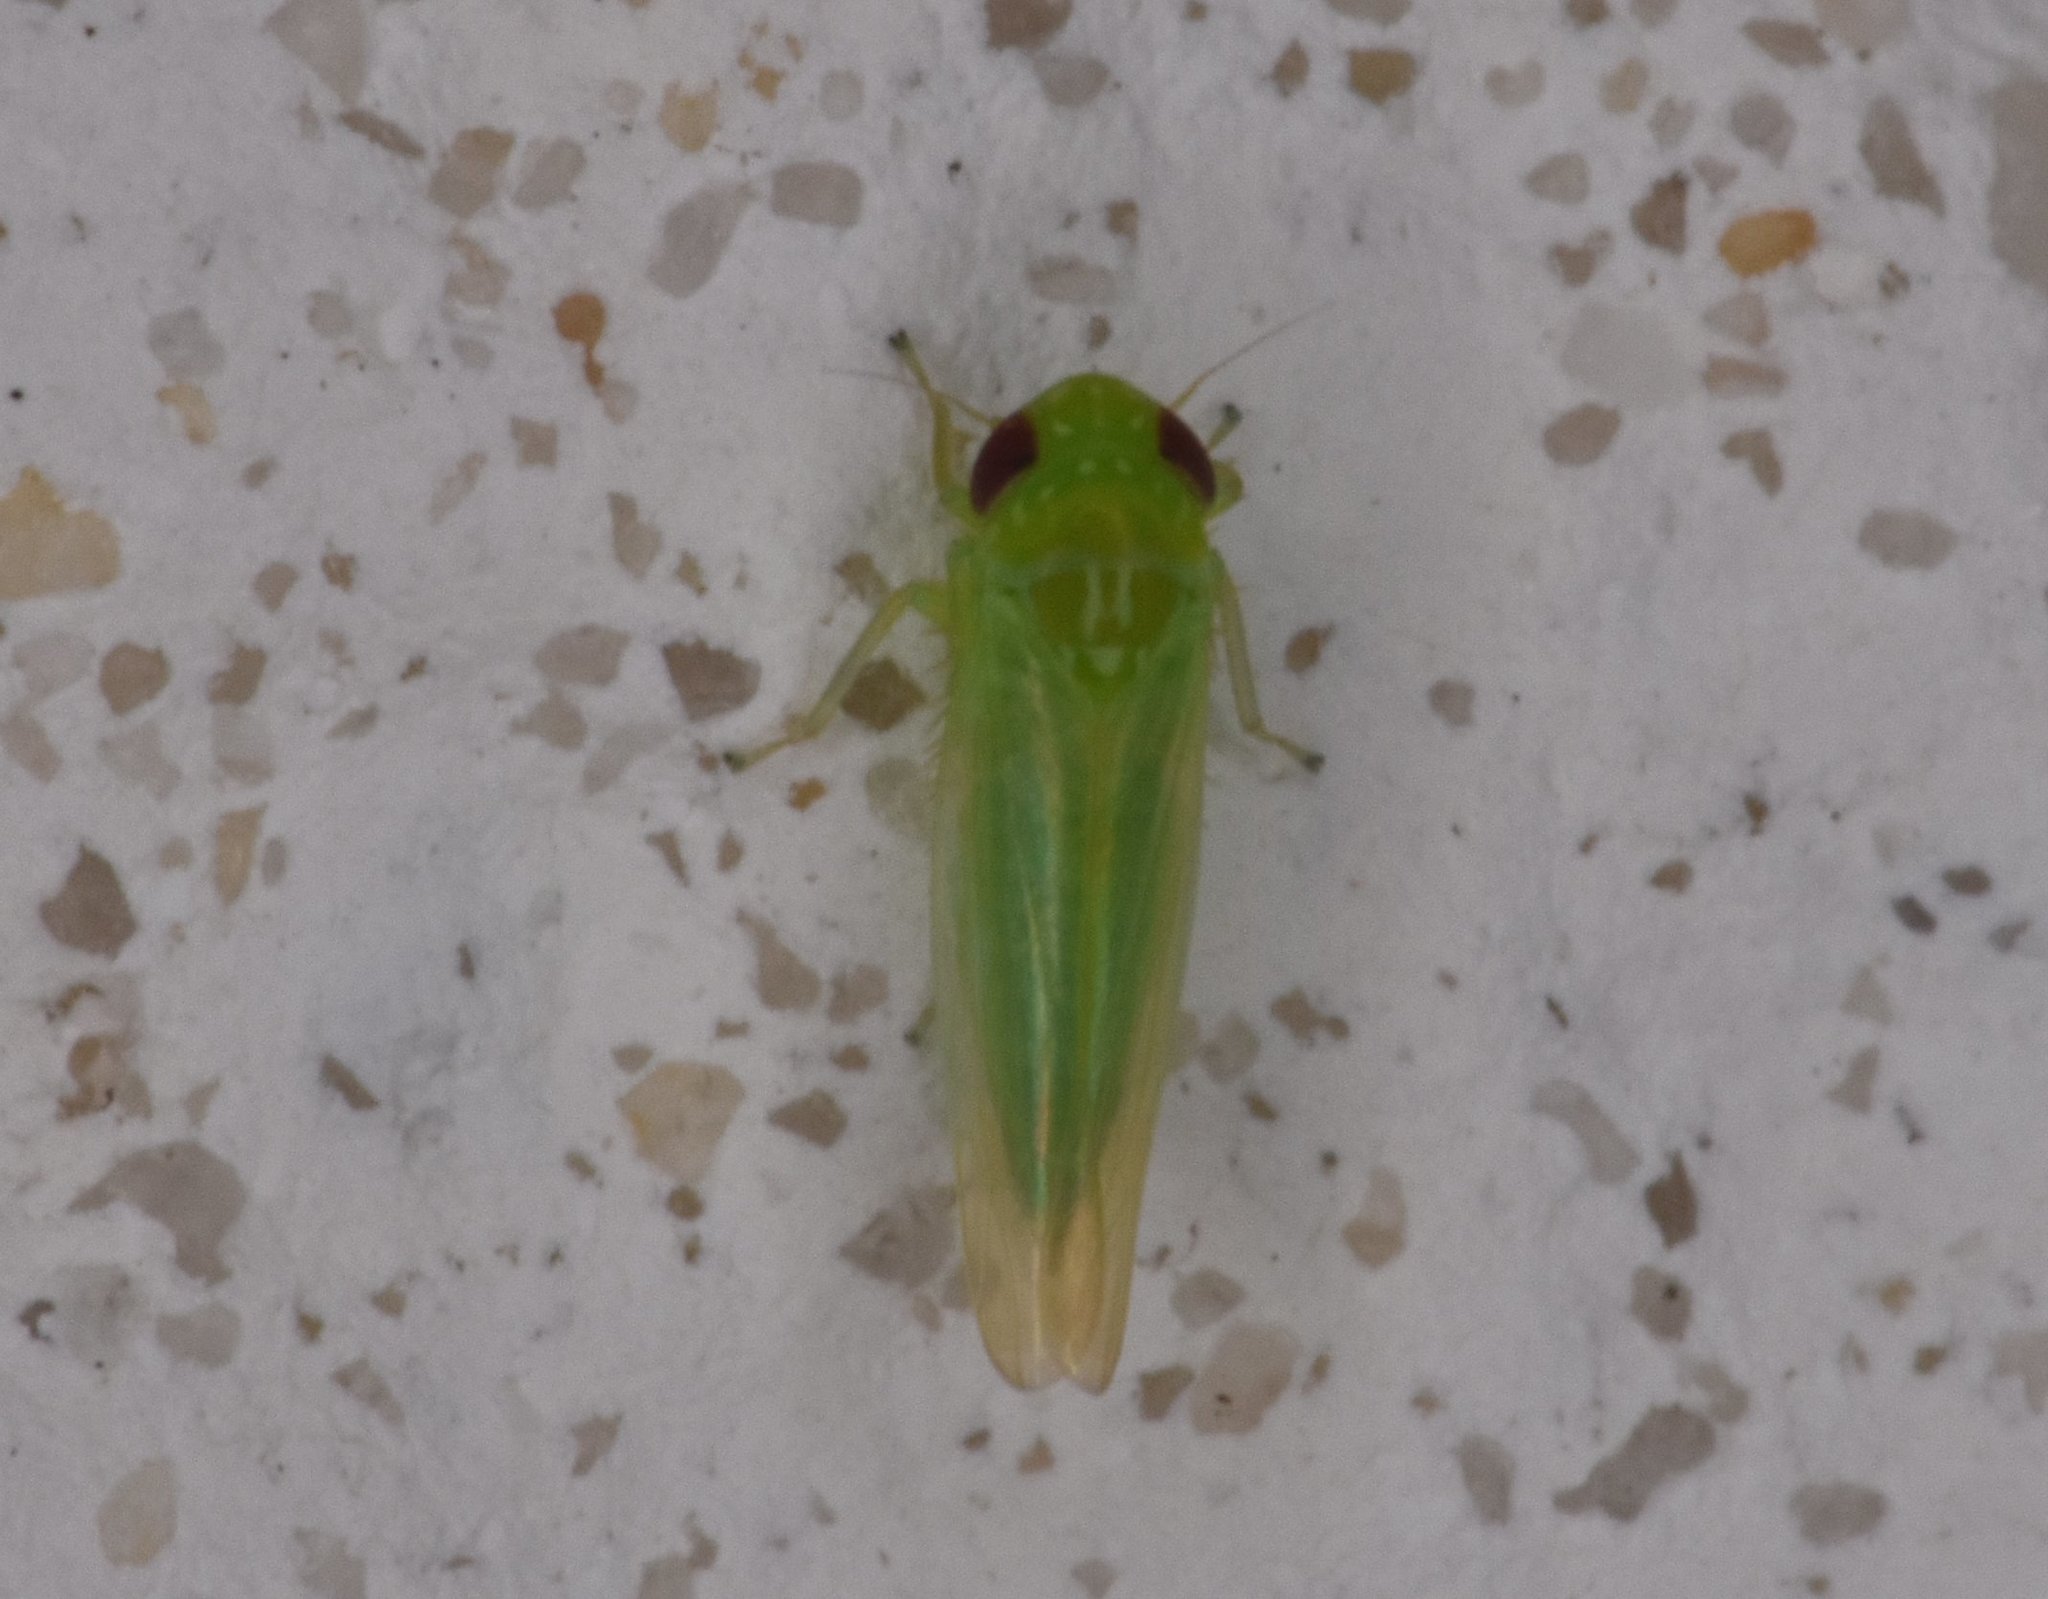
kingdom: Animalia
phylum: Arthropoda
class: Insecta
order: Hemiptera
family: Cicadellidae
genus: Empoasca
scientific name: Empoasca fabae
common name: Potato leafhopper
